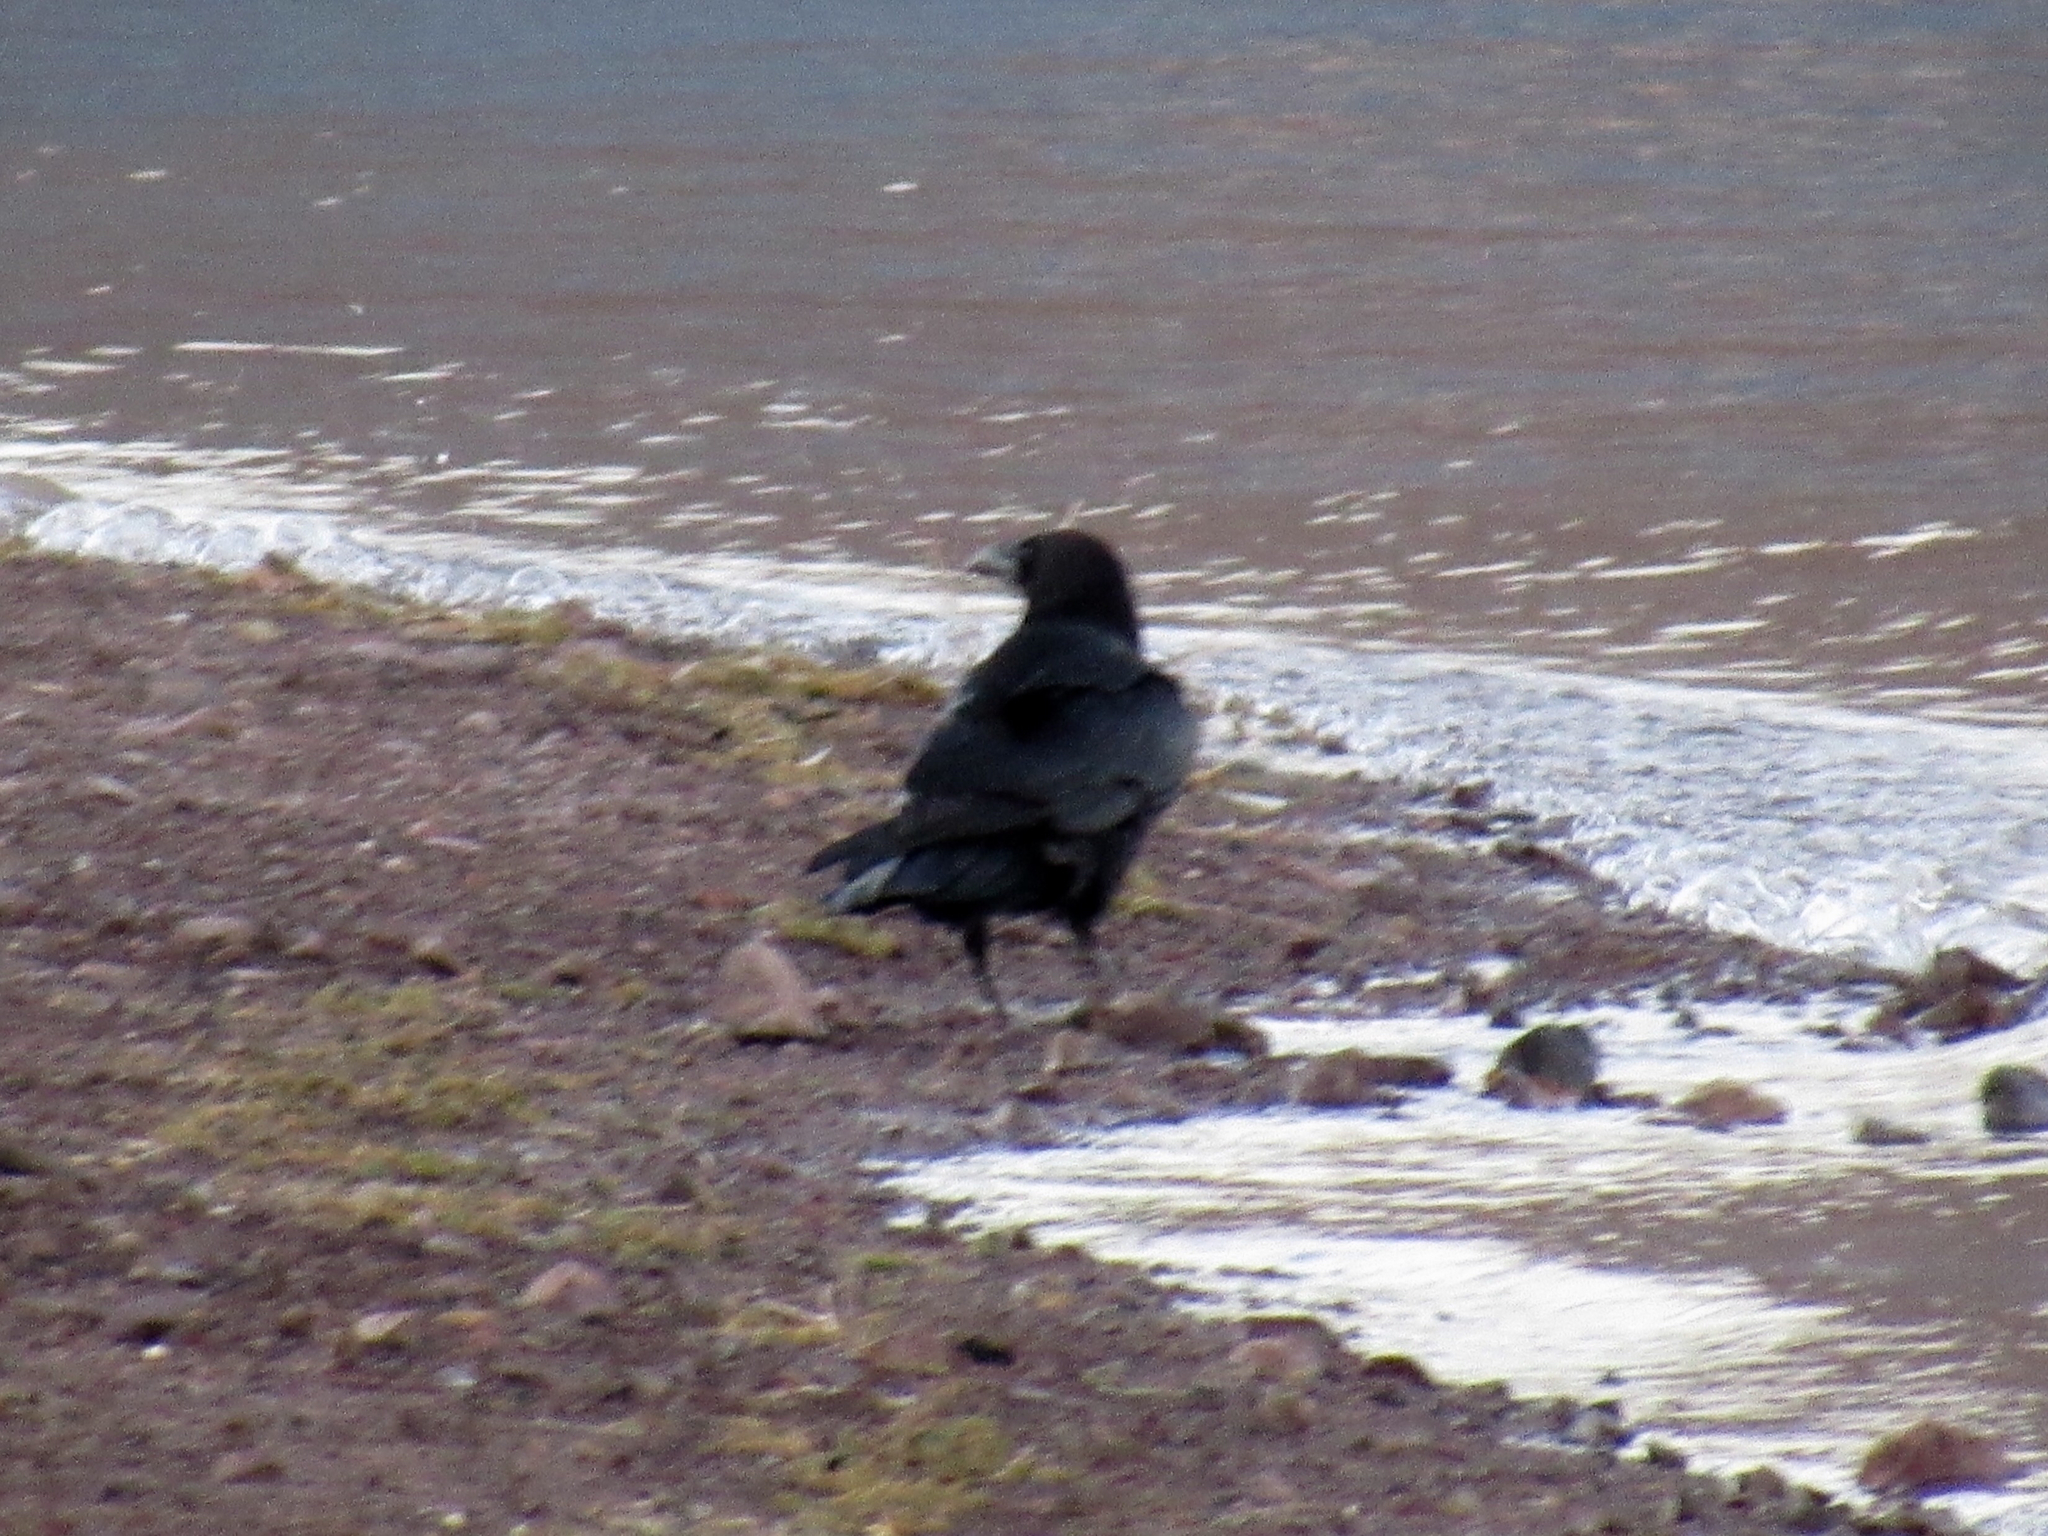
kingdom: Animalia
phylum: Chordata
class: Aves
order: Passeriformes
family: Corvidae
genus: Corvus
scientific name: Corvus corax
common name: Common raven
